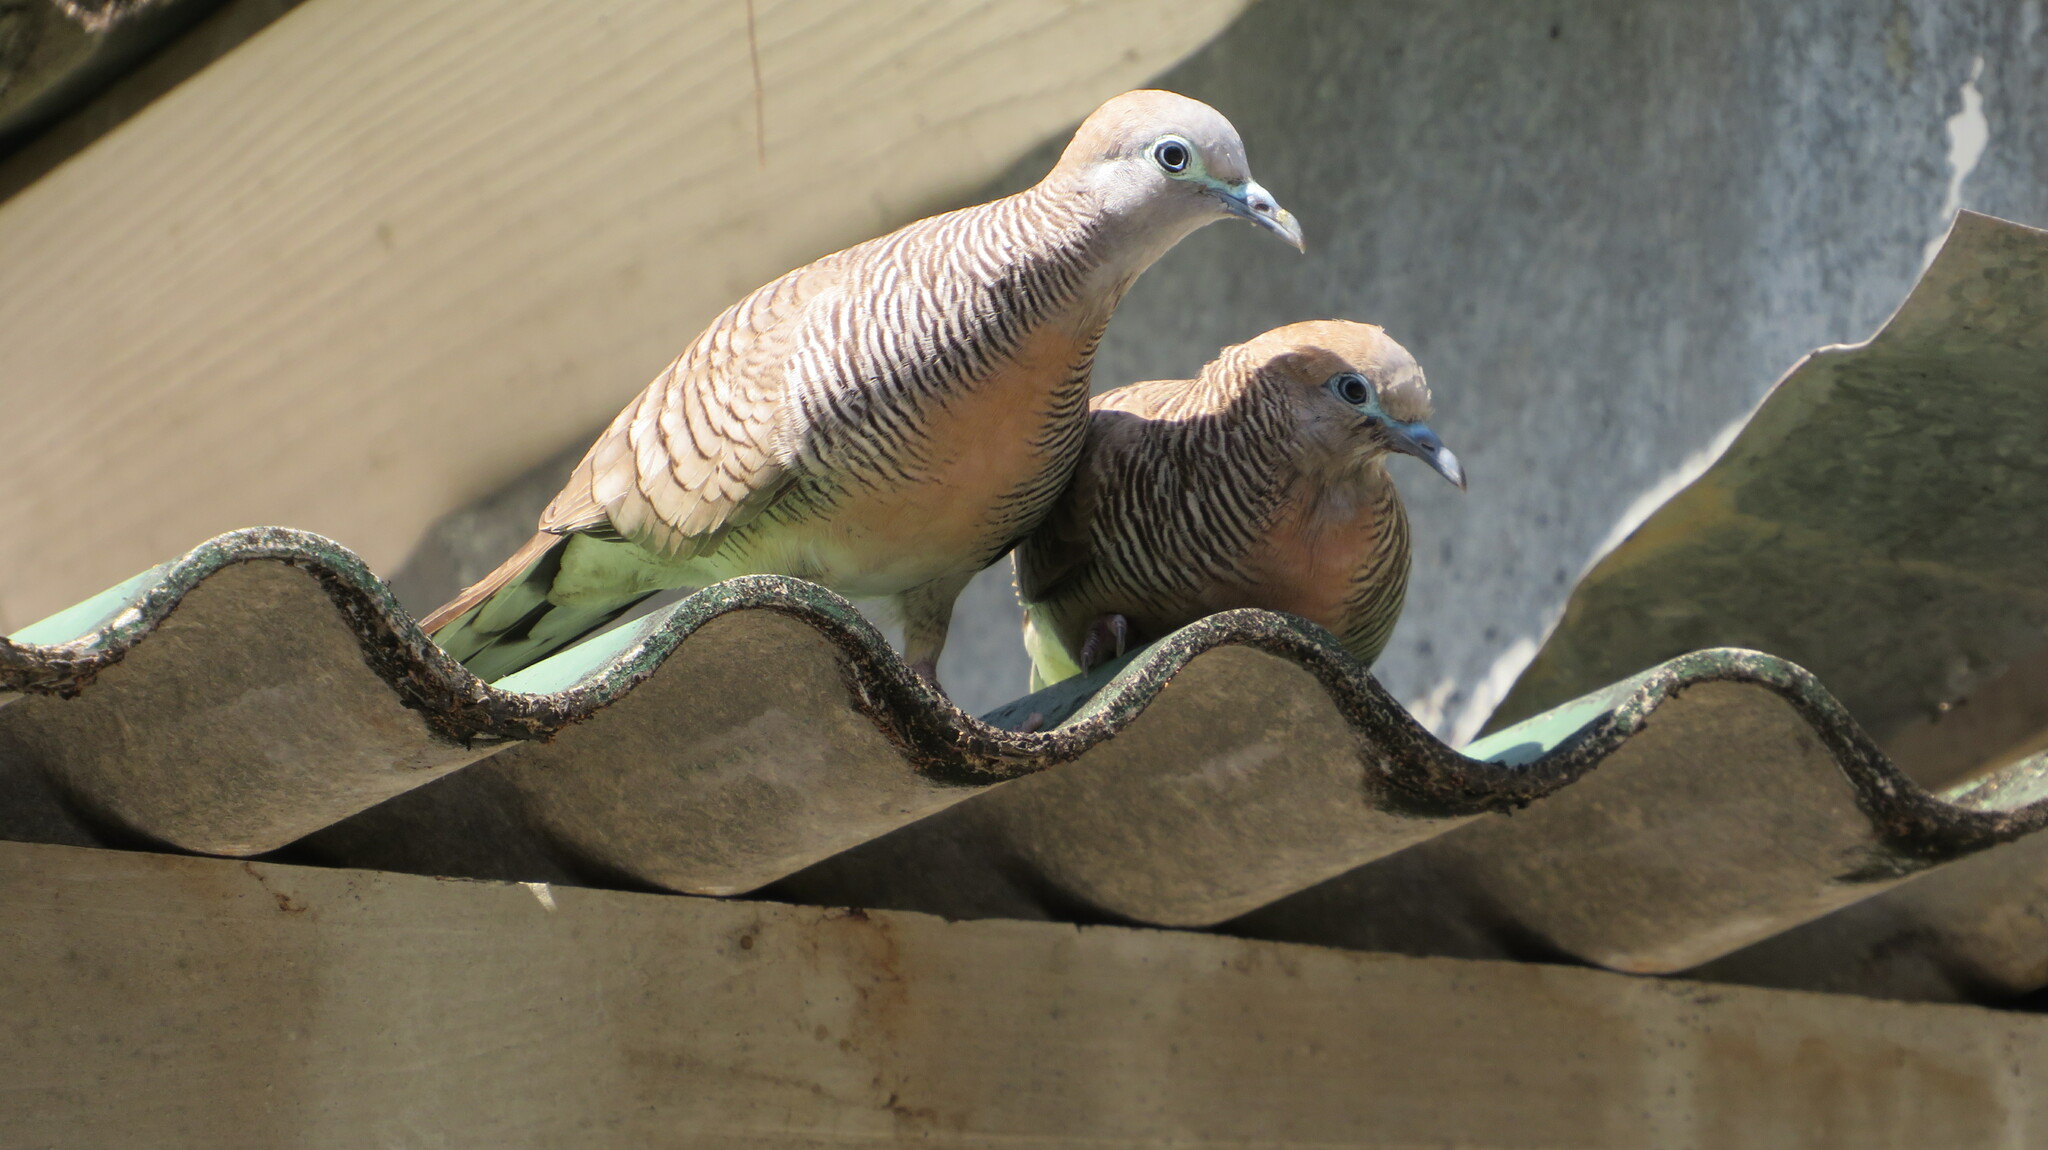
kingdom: Animalia
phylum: Chordata
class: Aves
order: Columbiformes
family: Columbidae
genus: Geopelia
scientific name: Geopelia striata
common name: Zebra dove
